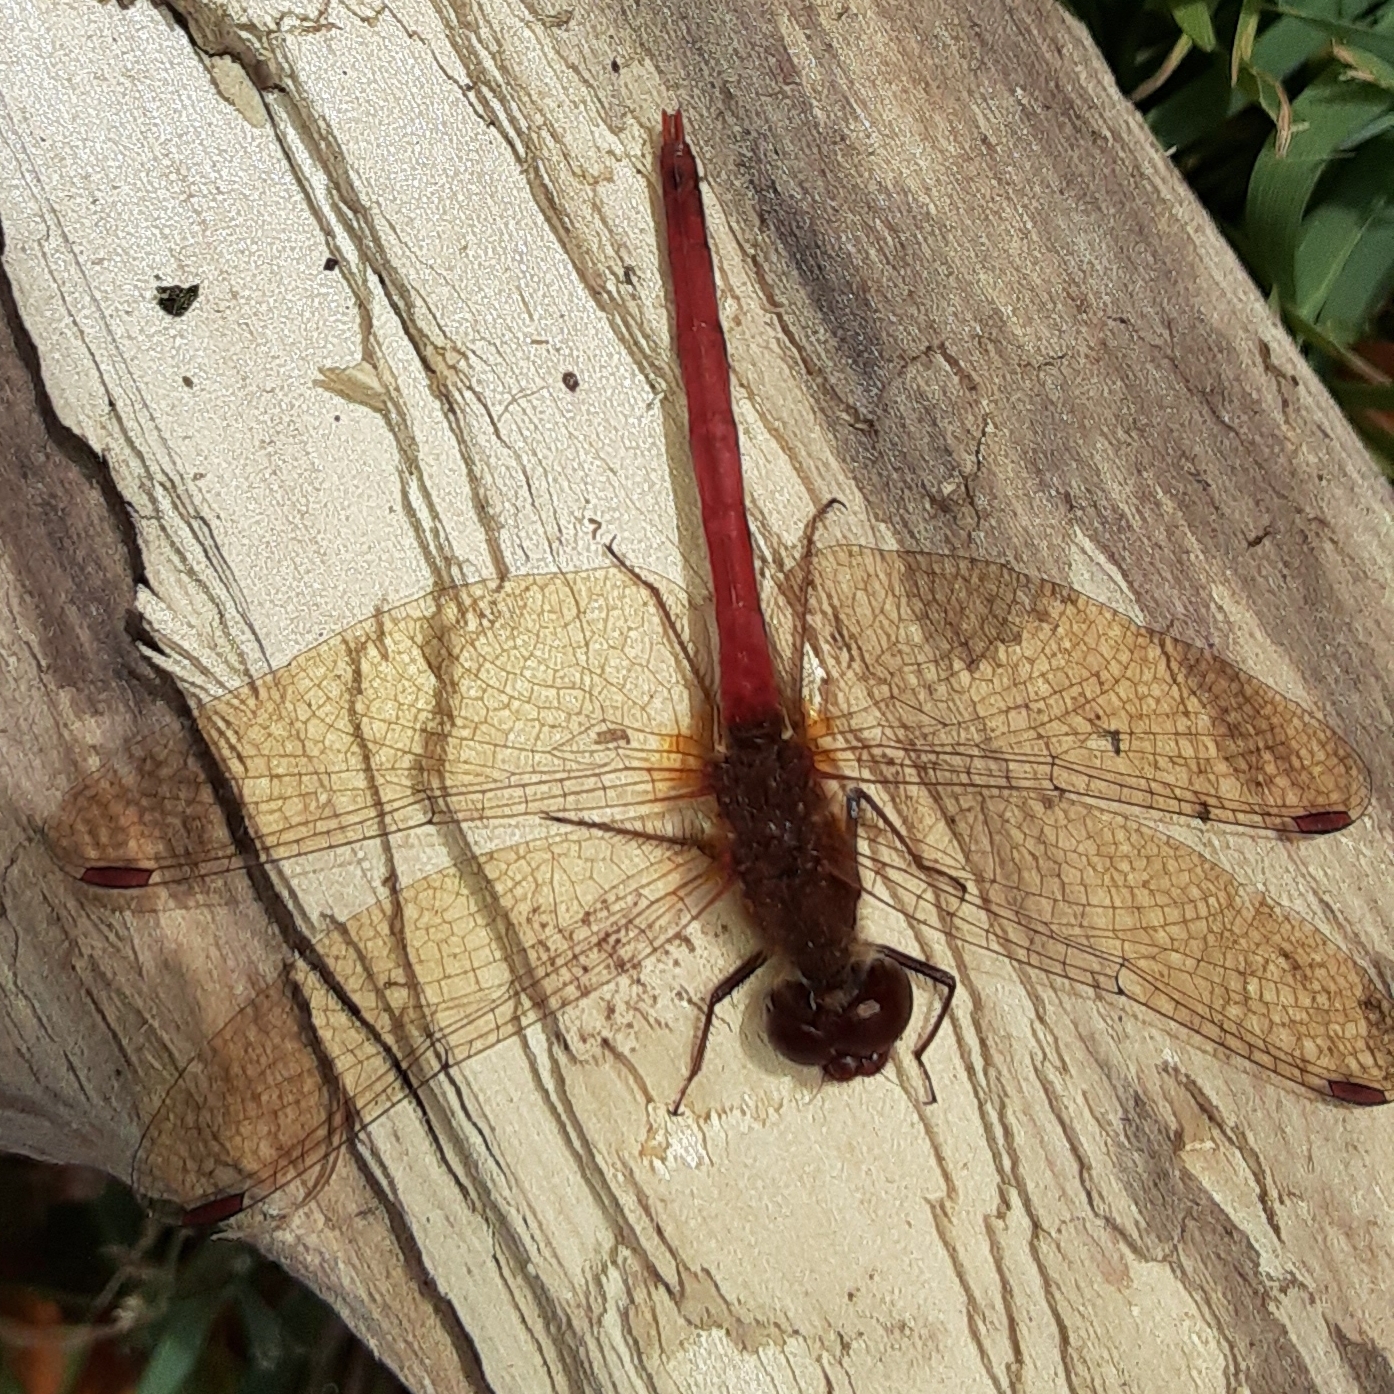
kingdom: Animalia
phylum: Arthropoda
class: Insecta
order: Odonata
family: Libellulidae
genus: Sympetrum
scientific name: Sympetrum vicinum
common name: Autumn meadowhawk
